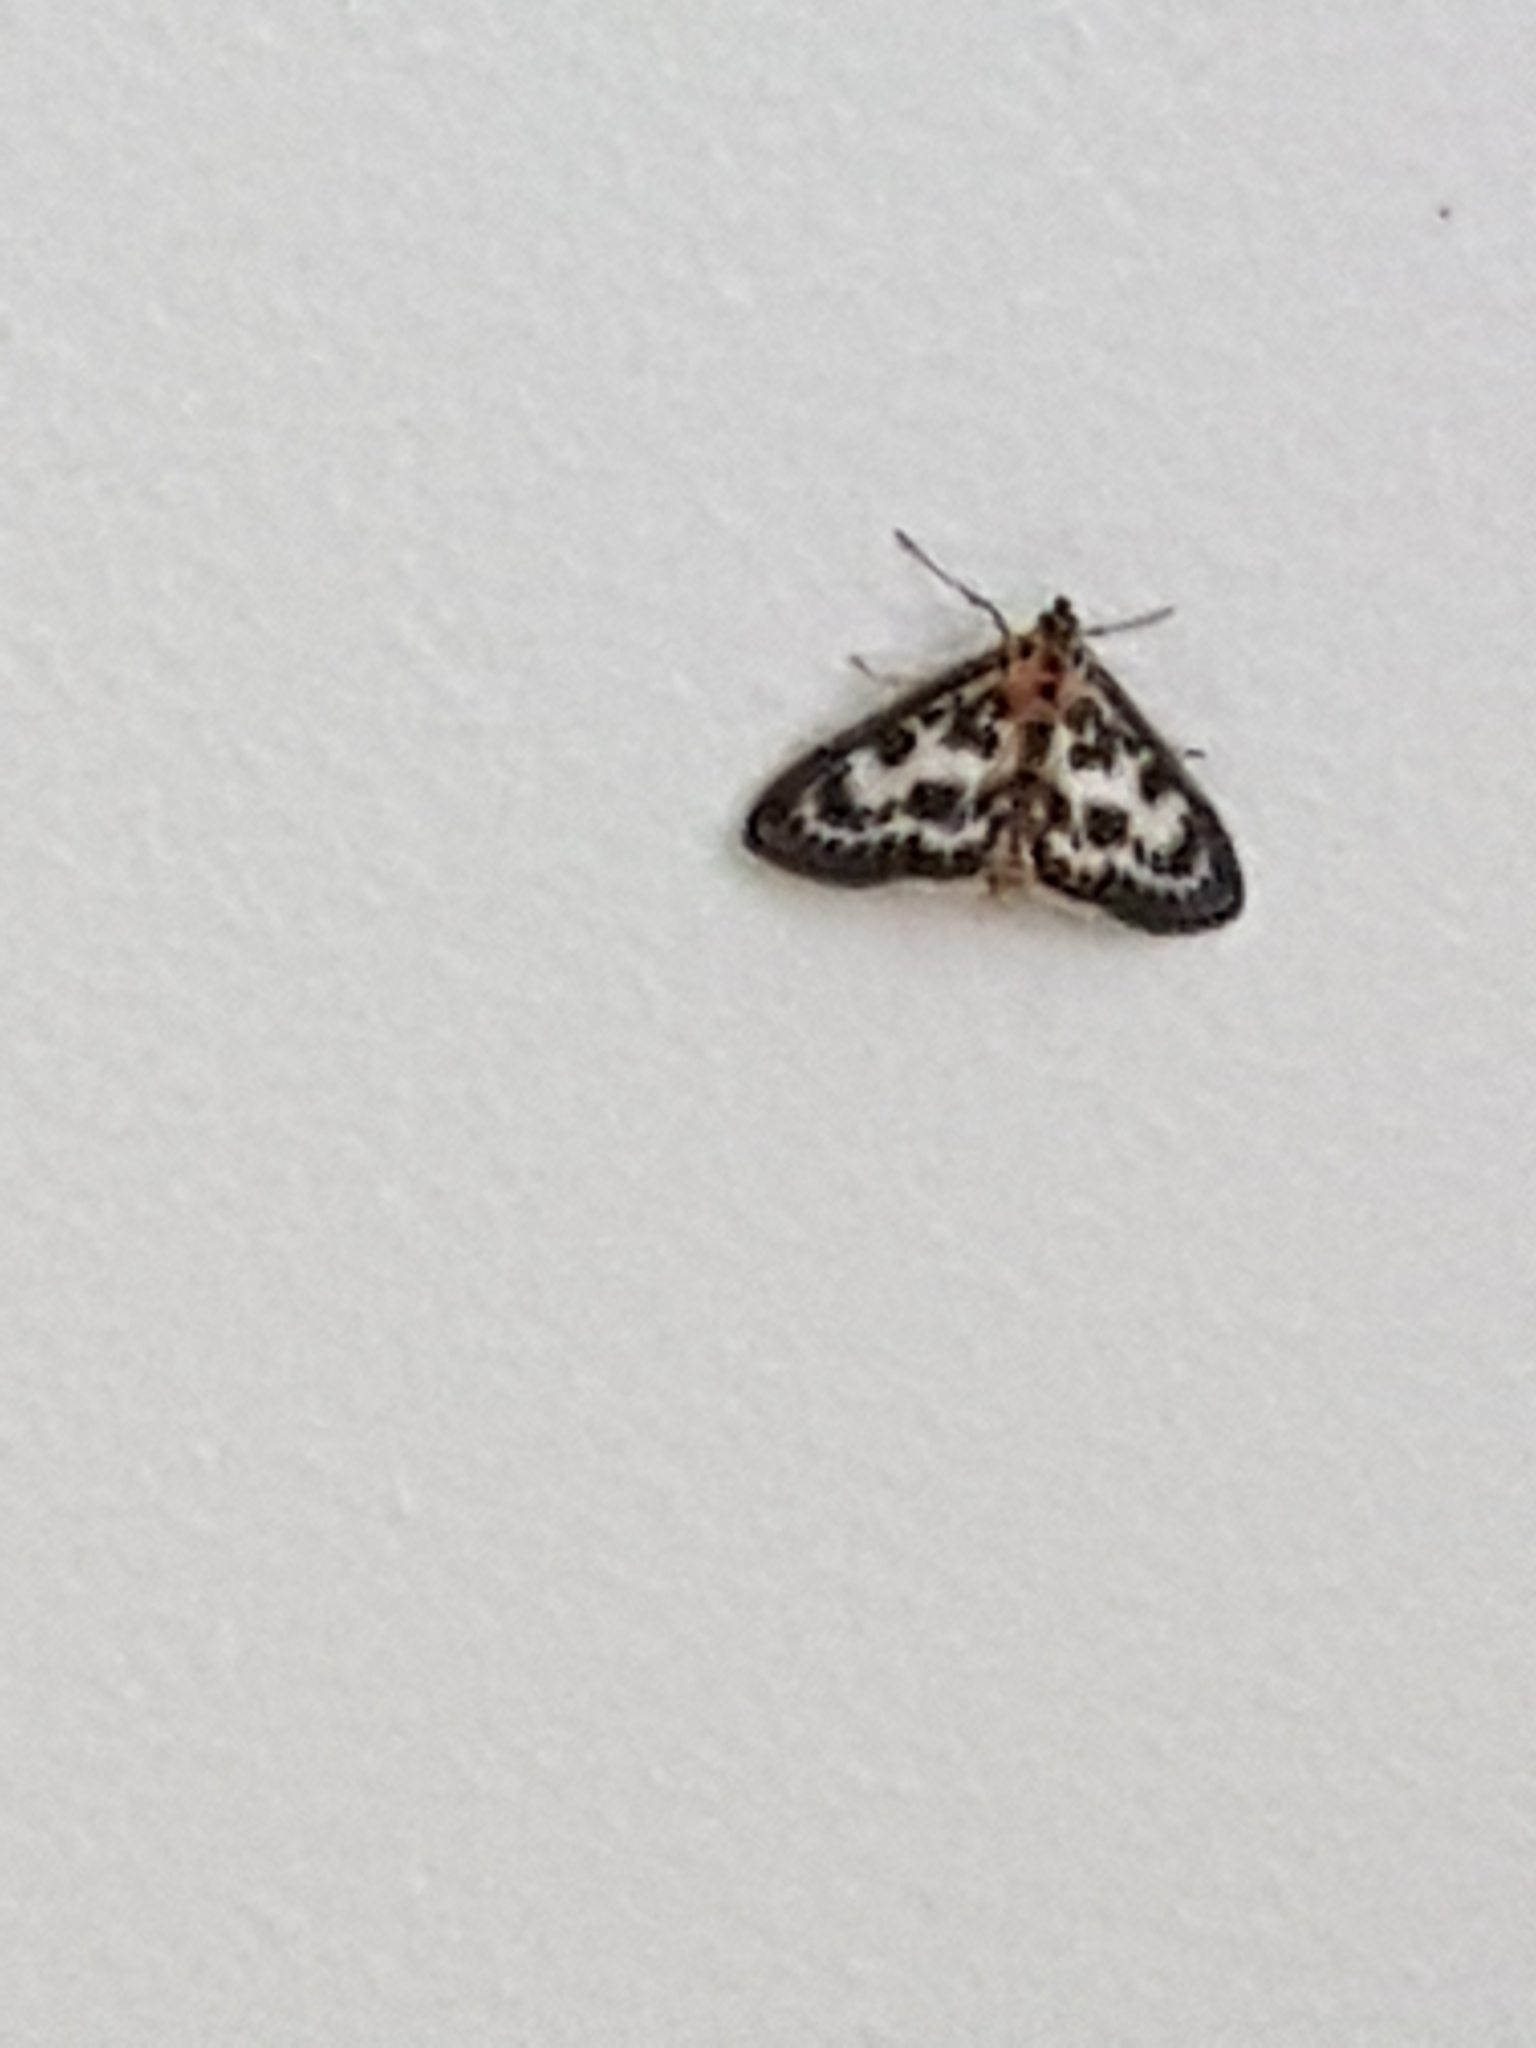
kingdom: Animalia
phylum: Arthropoda
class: Insecta
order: Lepidoptera
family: Crambidae
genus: Anania
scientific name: Anania hortulata
